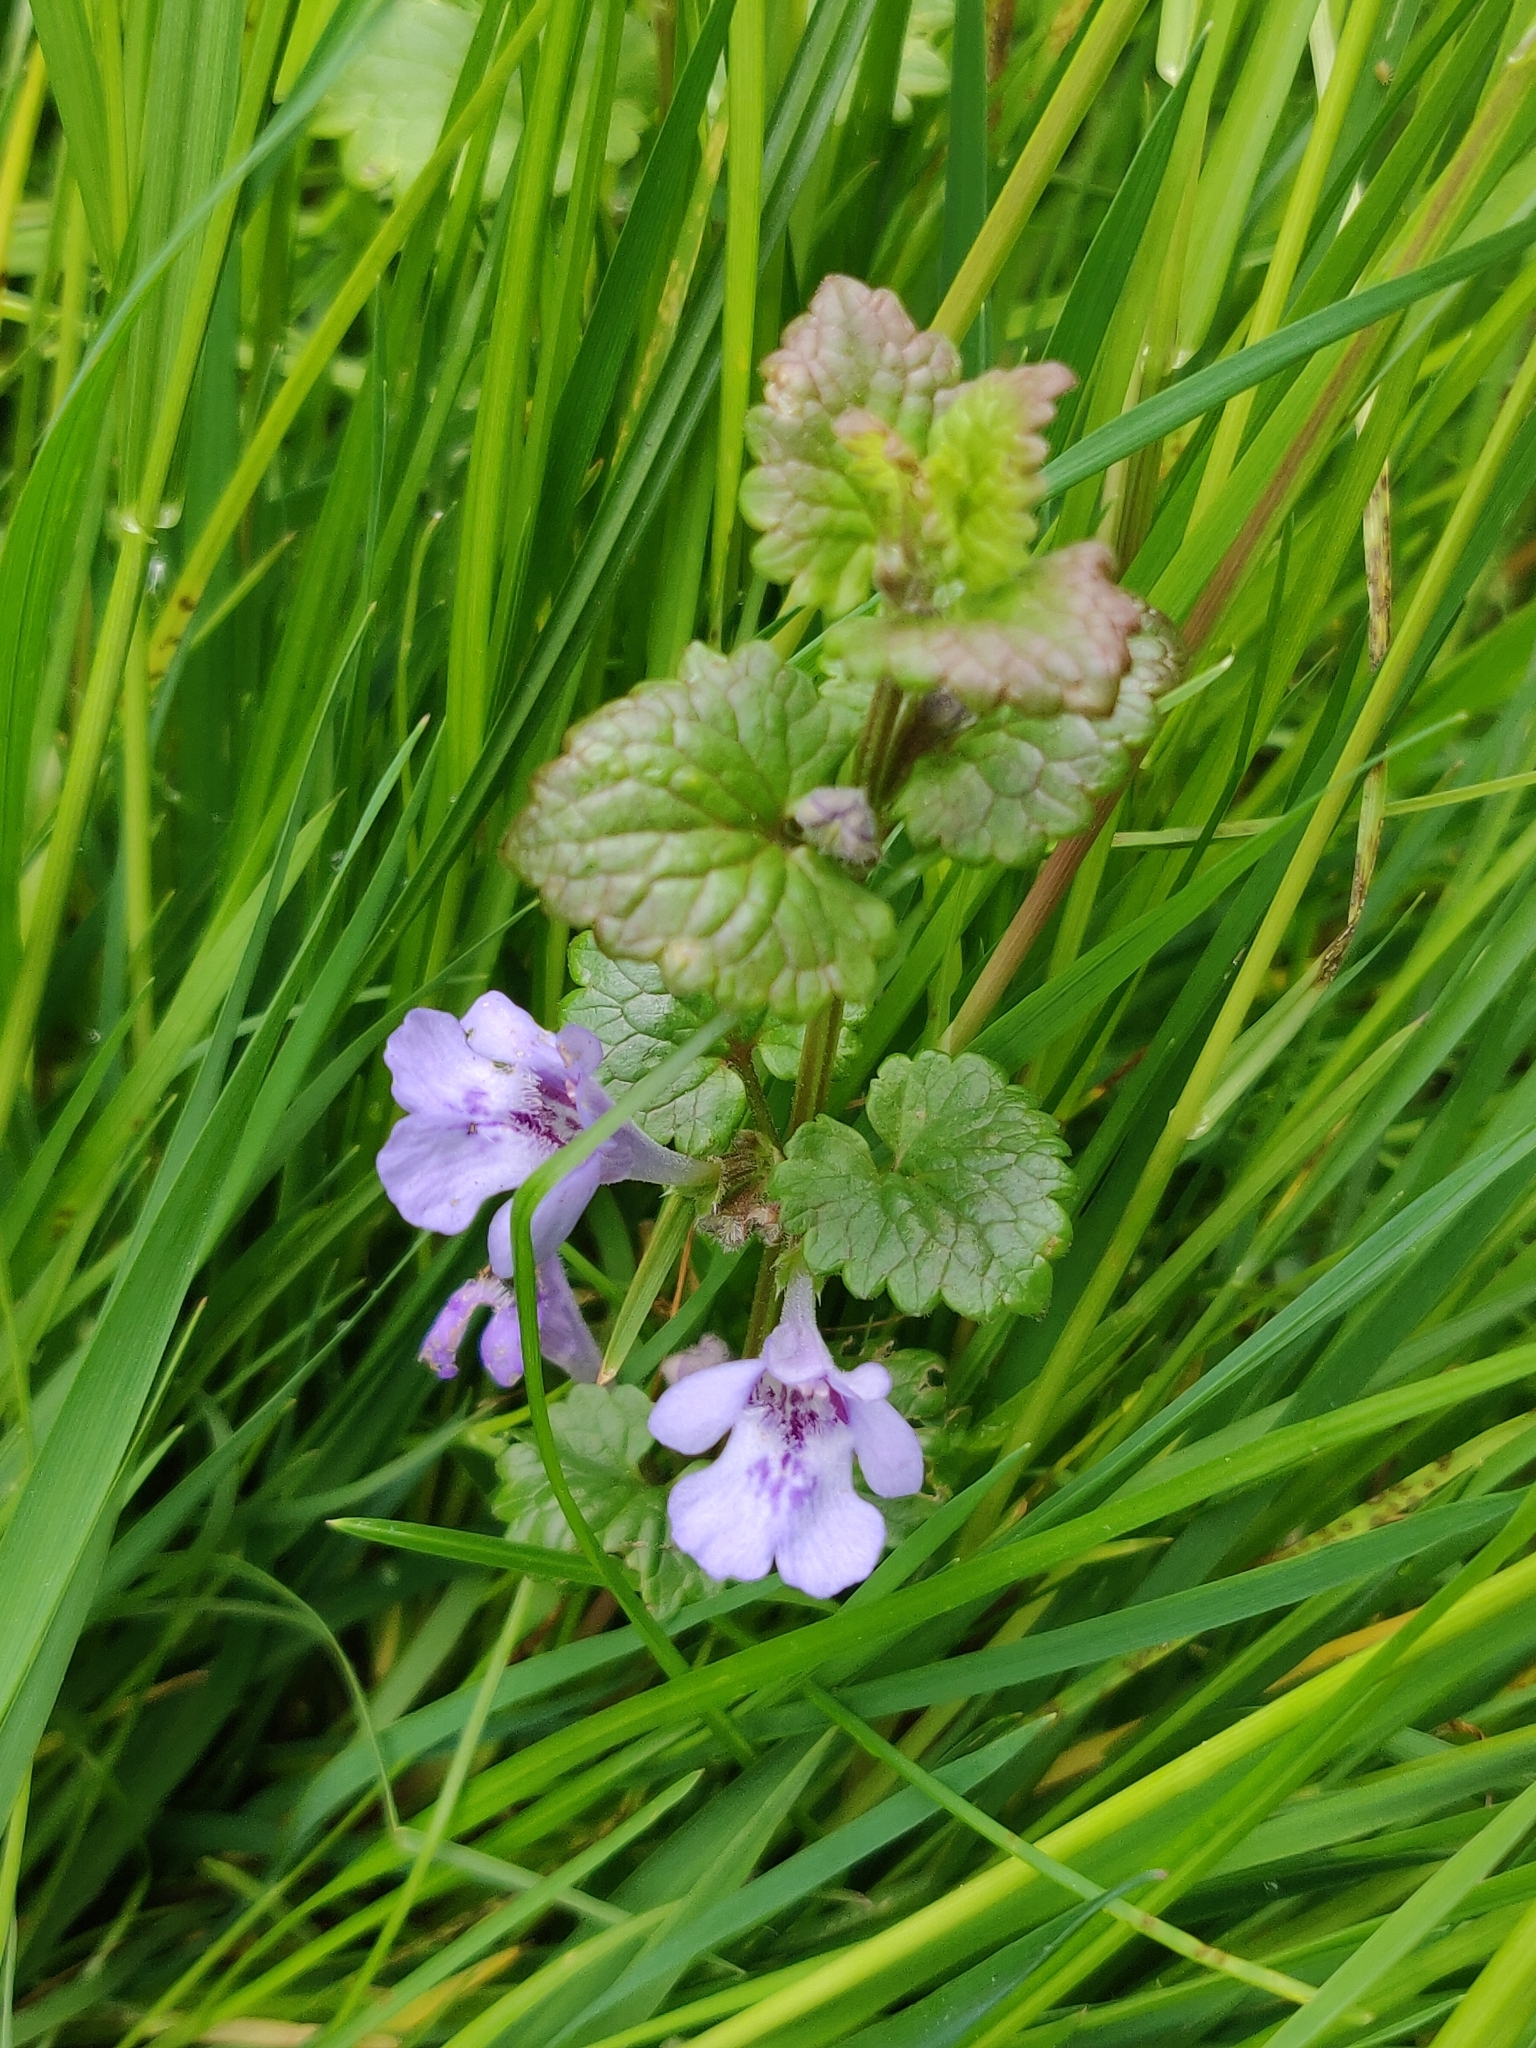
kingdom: Plantae
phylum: Tracheophyta
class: Magnoliopsida
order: Lamiales
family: Lamiaceae
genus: Glechoma
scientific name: Glechoma hederacea
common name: Ground ivy
